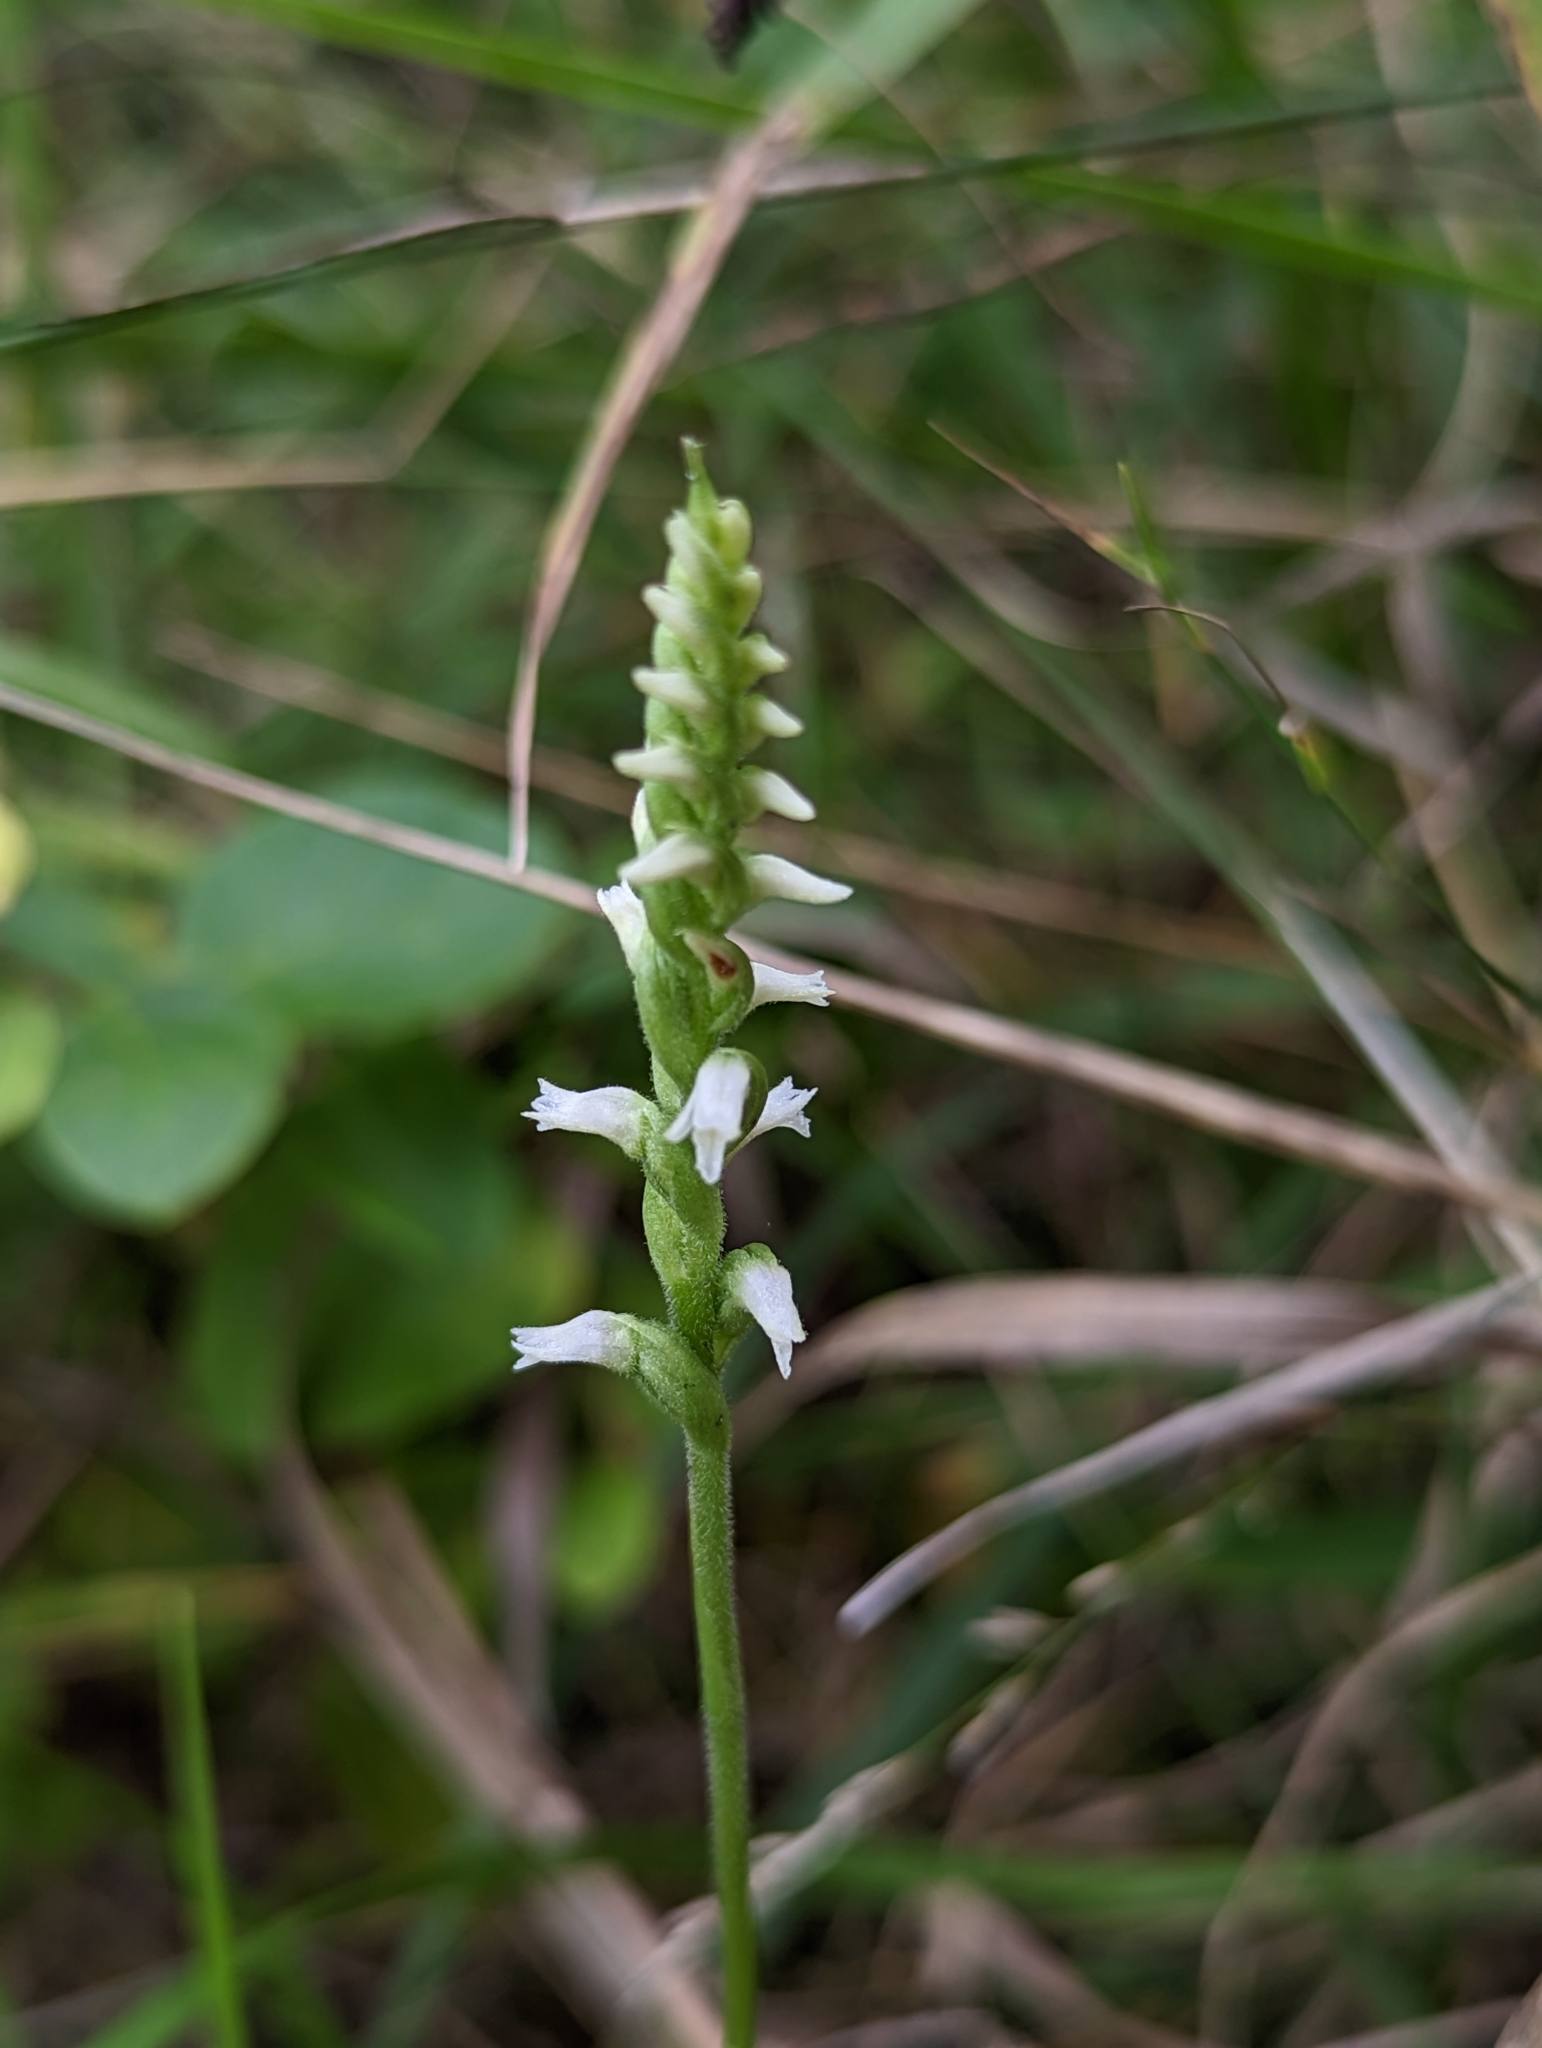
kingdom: Plantae
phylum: Tracheophyta
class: Liliopsida
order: Asparagales
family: Orchidaceae
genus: Spiranthes
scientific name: Spiranthes ovalis
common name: October ladies'-tresses
